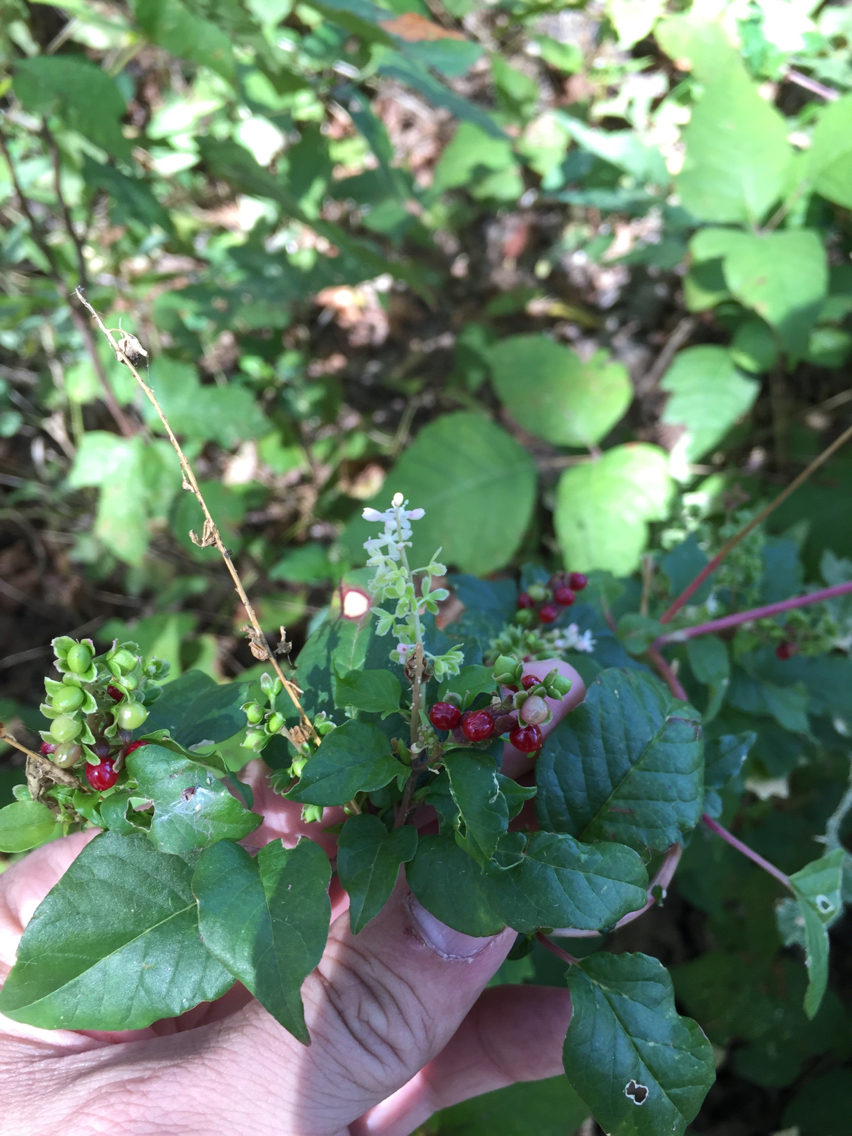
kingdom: Plantae
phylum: Tracheophyta
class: Magnoliopsida
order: Caryophyllales
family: Phytolaccaceae
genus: Rivina
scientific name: Rivina humilis
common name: Rougeplant
